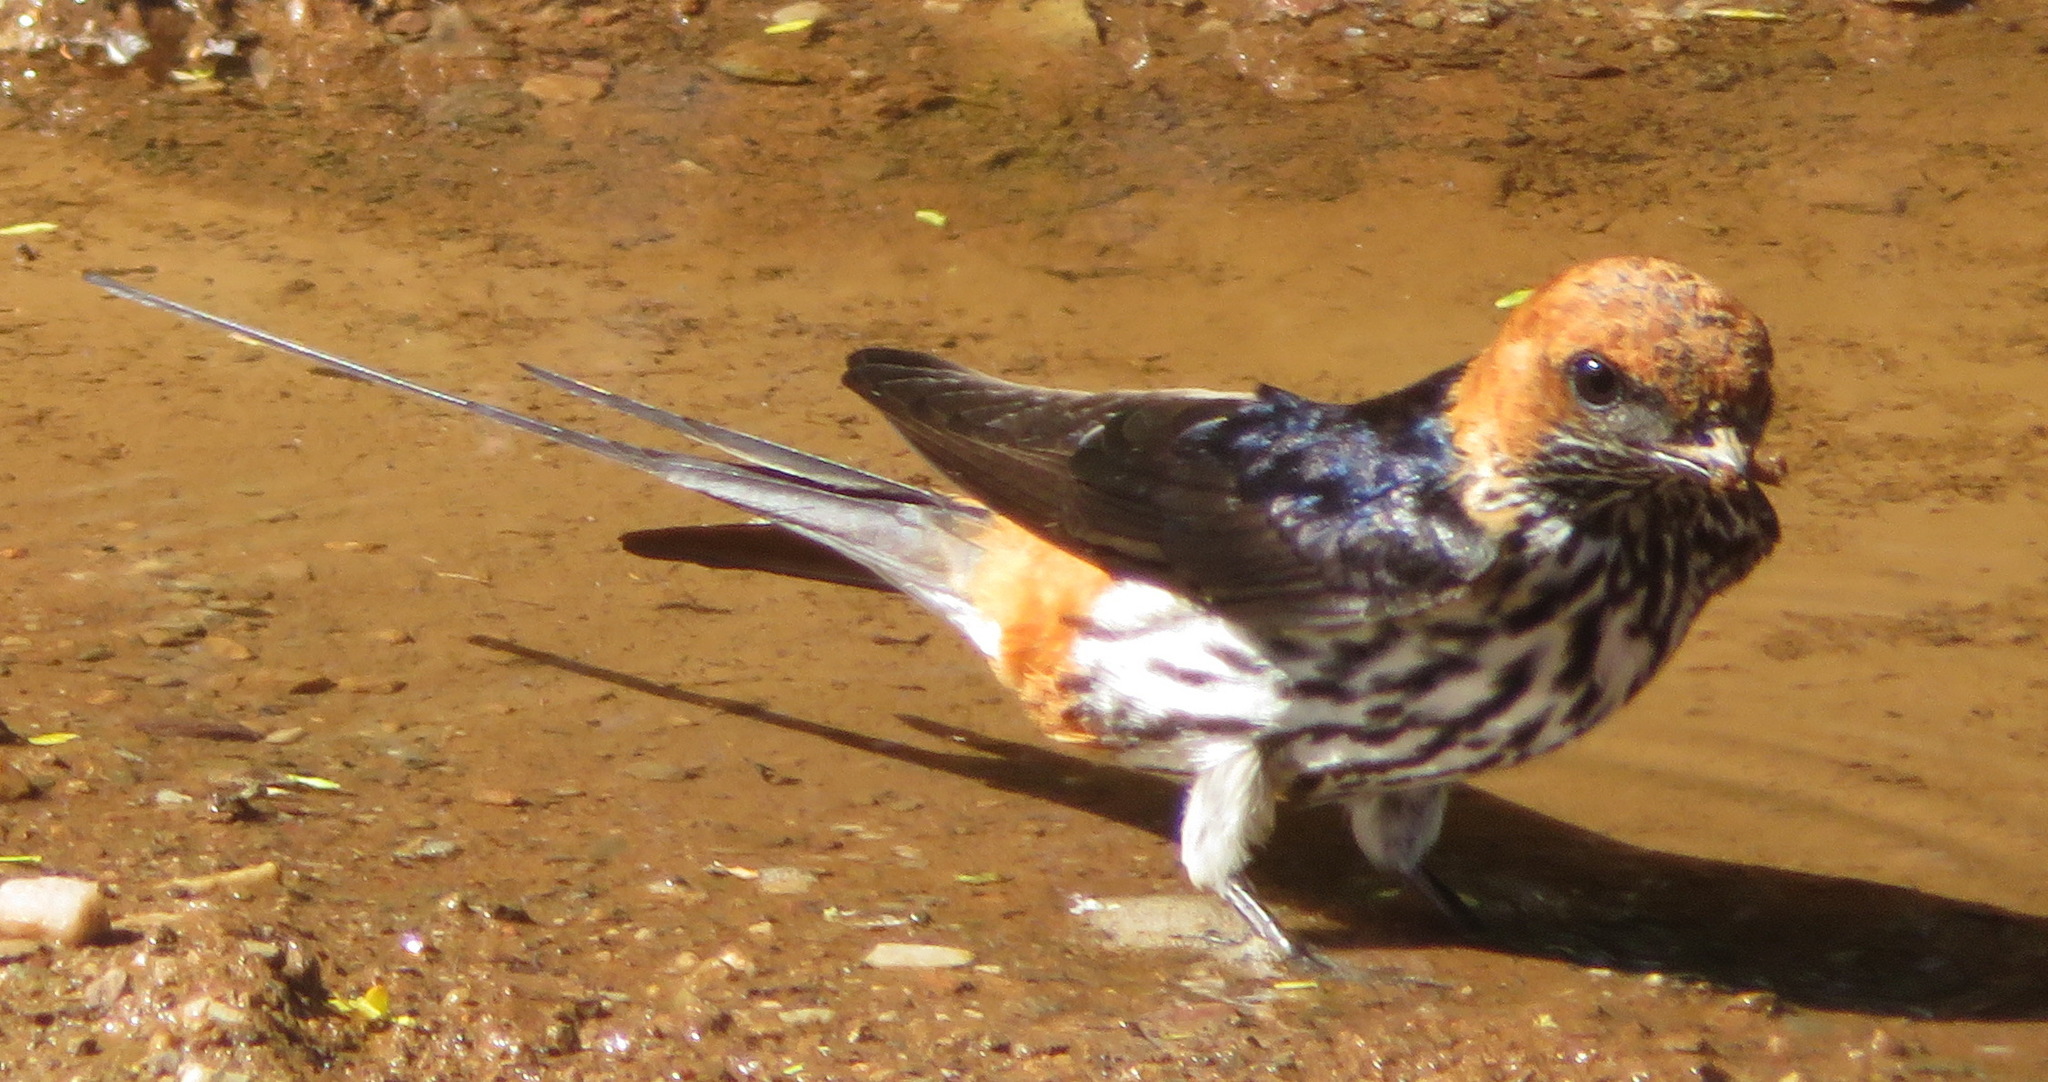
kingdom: Animalia
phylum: Chordata
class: Aves
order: Passeriformes
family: Hirundinidae
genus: Cecropis
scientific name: Cecropis abyssinica
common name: Lesser striped-swallow
